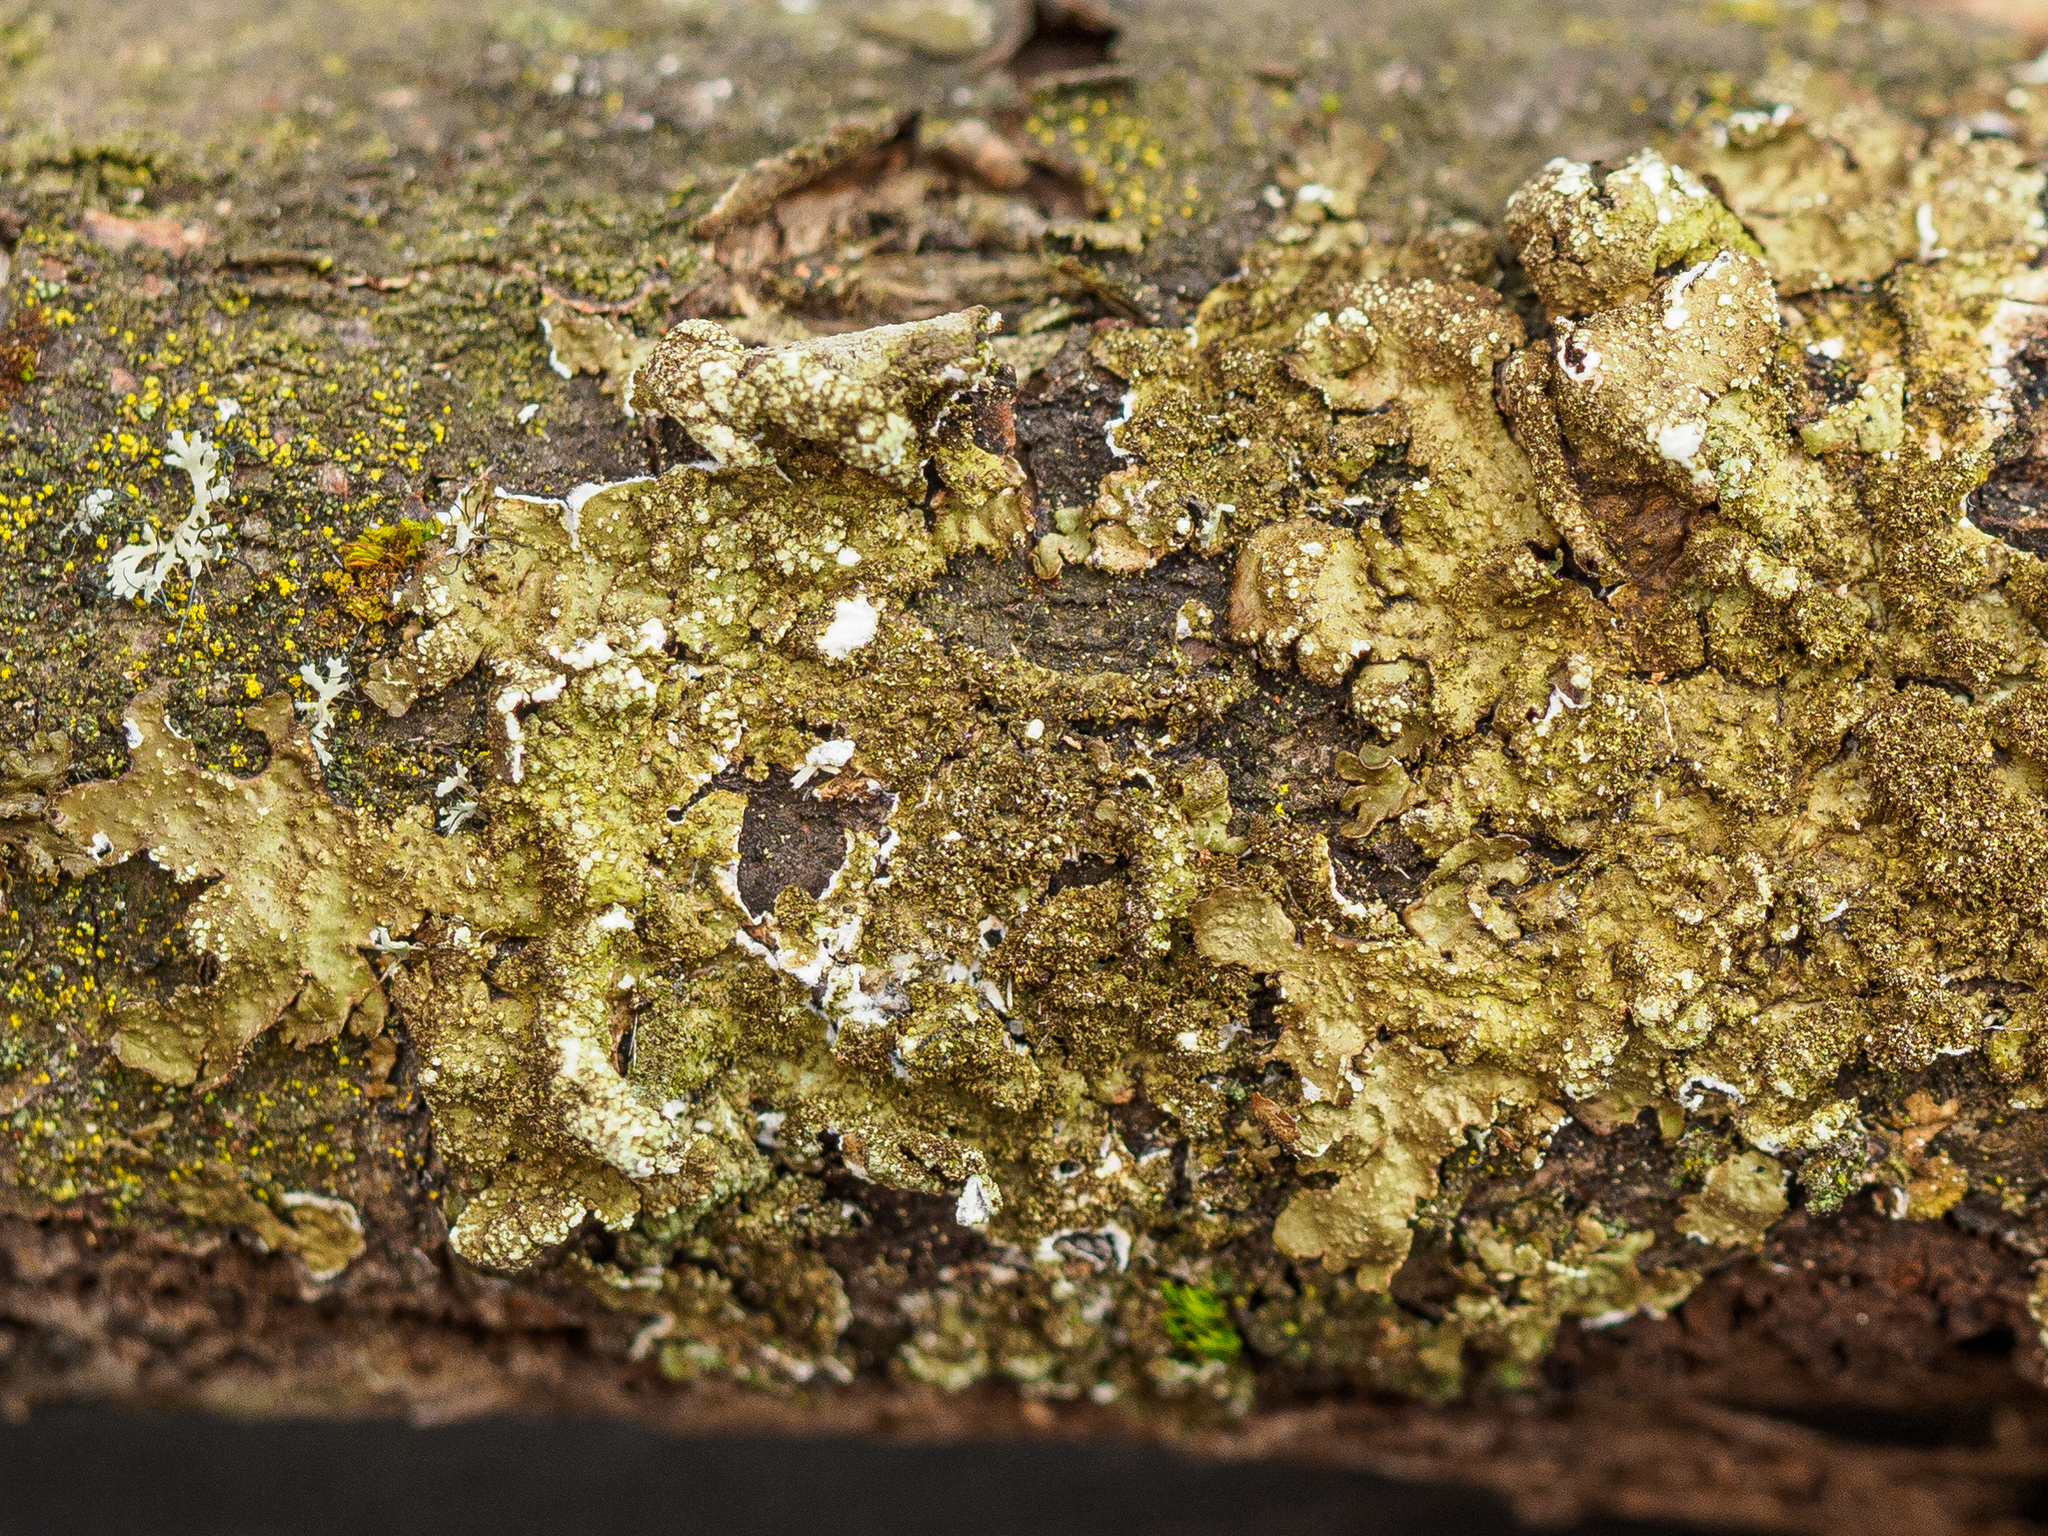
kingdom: Fungi
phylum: Ascomycota
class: Lecanoromycetes
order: Lecanorales
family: Parmeliaceae
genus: Melanelixia
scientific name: Melanelixia subaurifera
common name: Abraded camouflage lichen
